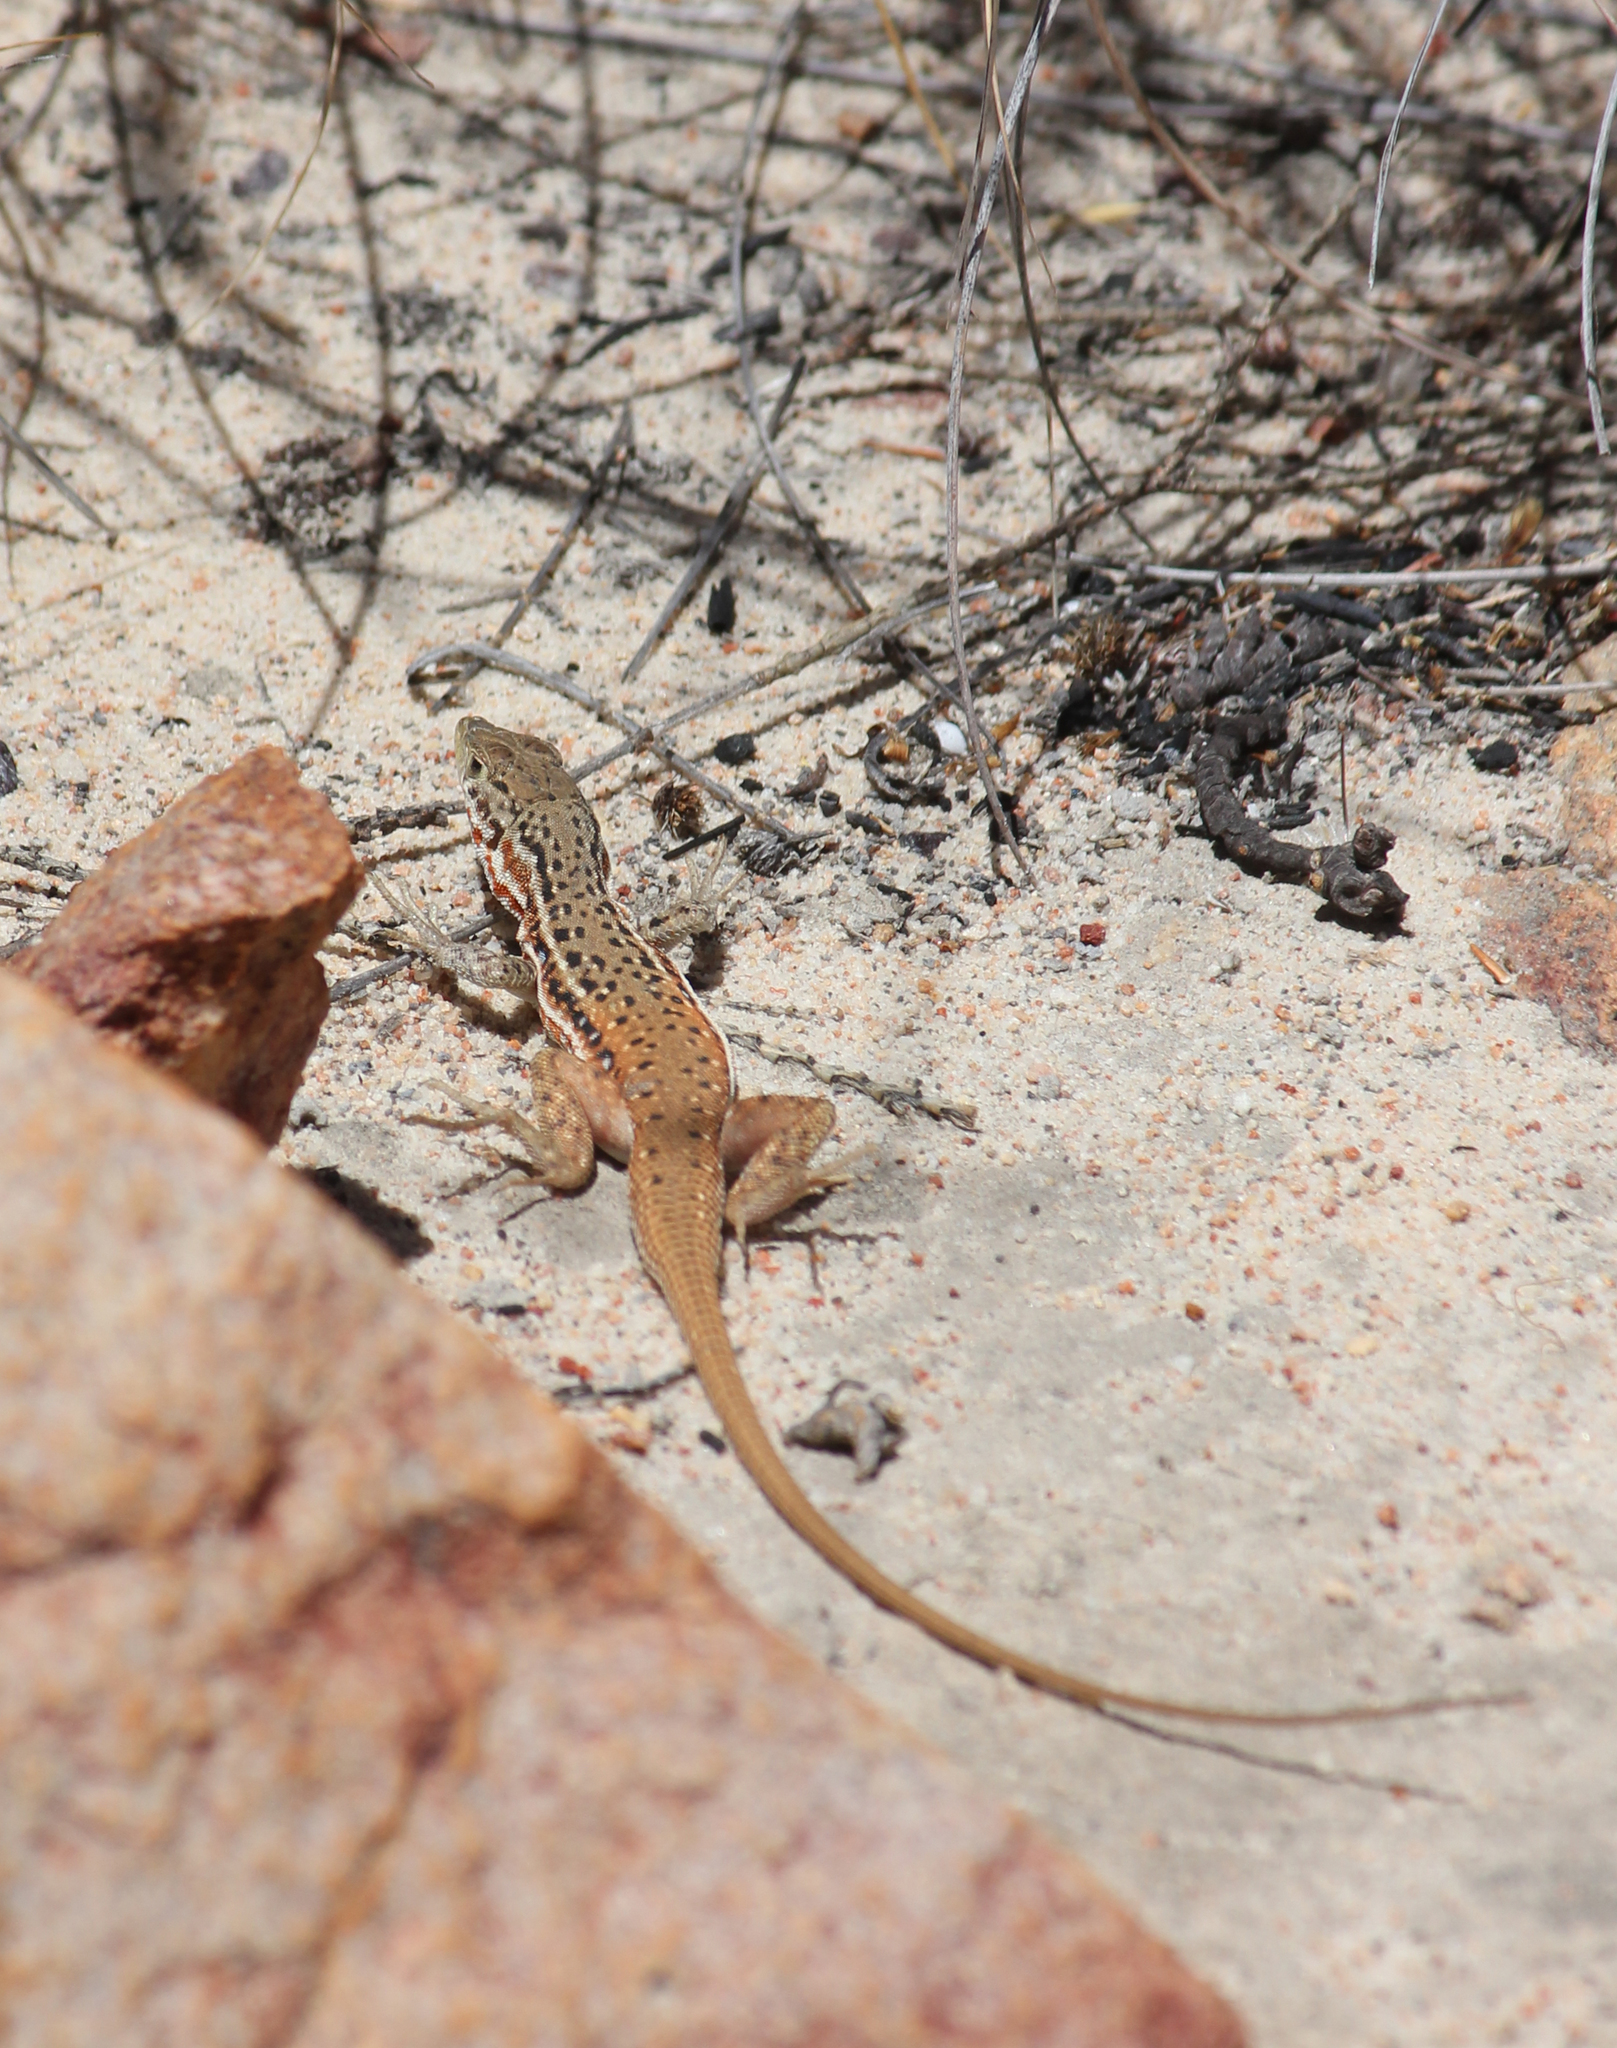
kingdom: Animalia
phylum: Chordata
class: Squamata
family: Lacertidae
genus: Pedioplanis
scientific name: Pedioplanis lineoocellata
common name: Spotted sand lizard
